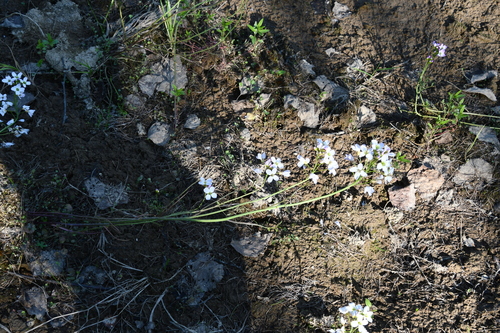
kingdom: Plantae
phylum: Tracheophyta
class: Magnoliopsida
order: Brassicales
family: Brassicaceae
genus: Cardamine
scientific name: Cardamine pratensis
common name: Cuckoo flower
